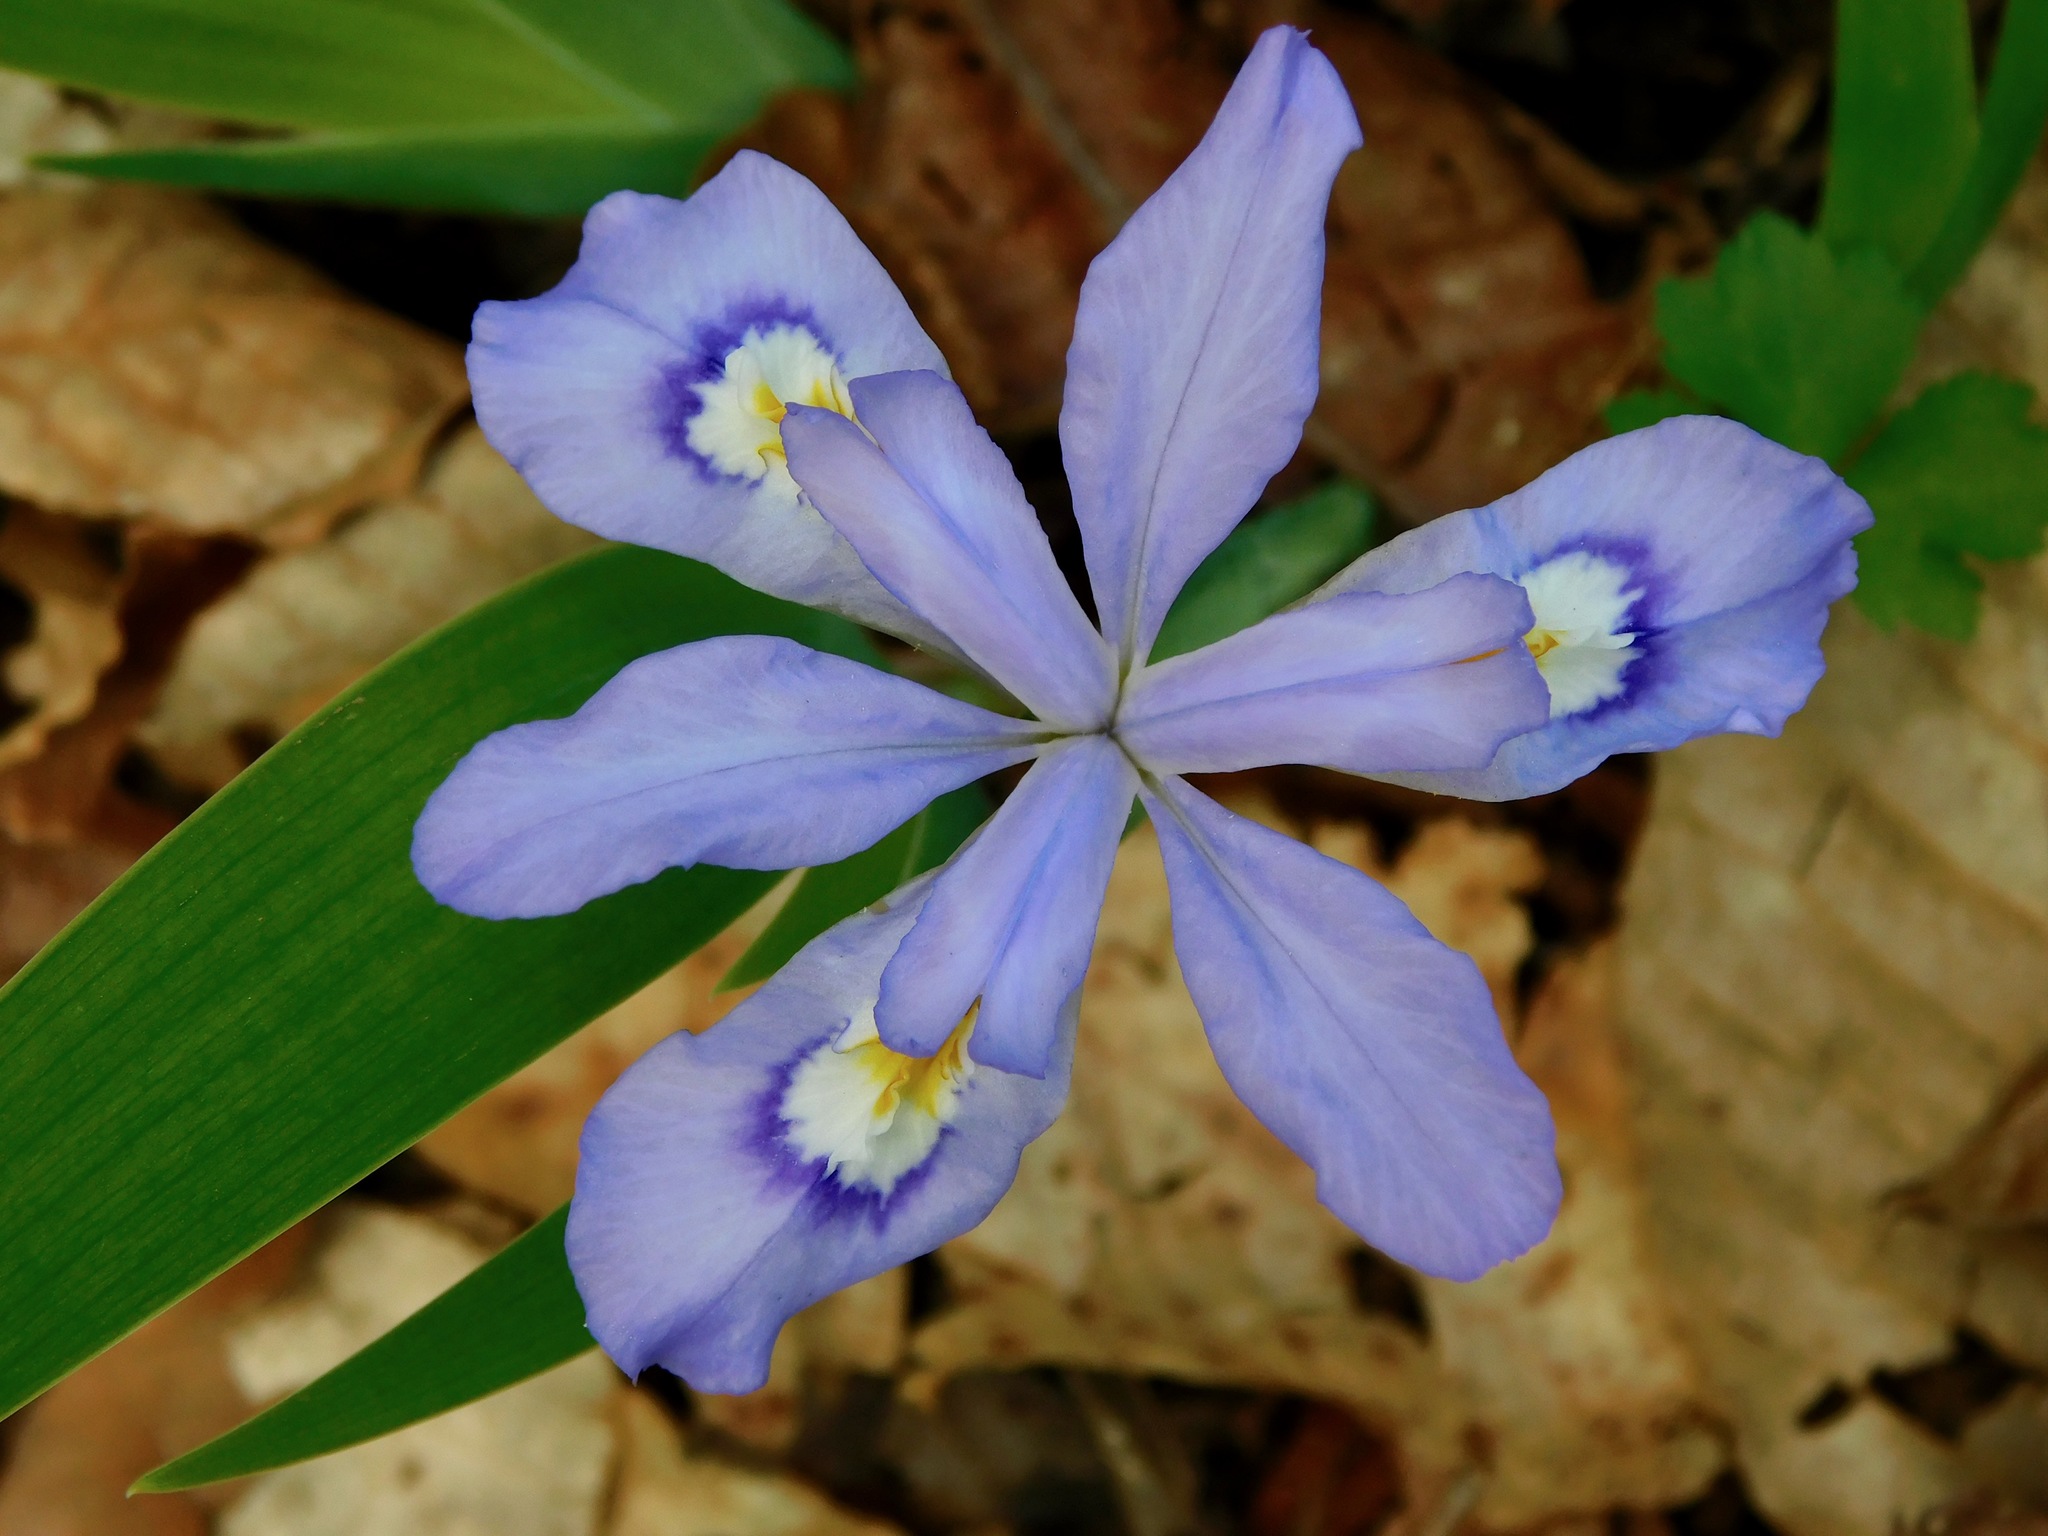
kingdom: Plantae
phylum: Tracheophyta
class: Liliopsida
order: Asparagales
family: Iridaceae
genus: Iris
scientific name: Iris cristata
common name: Crested iris
